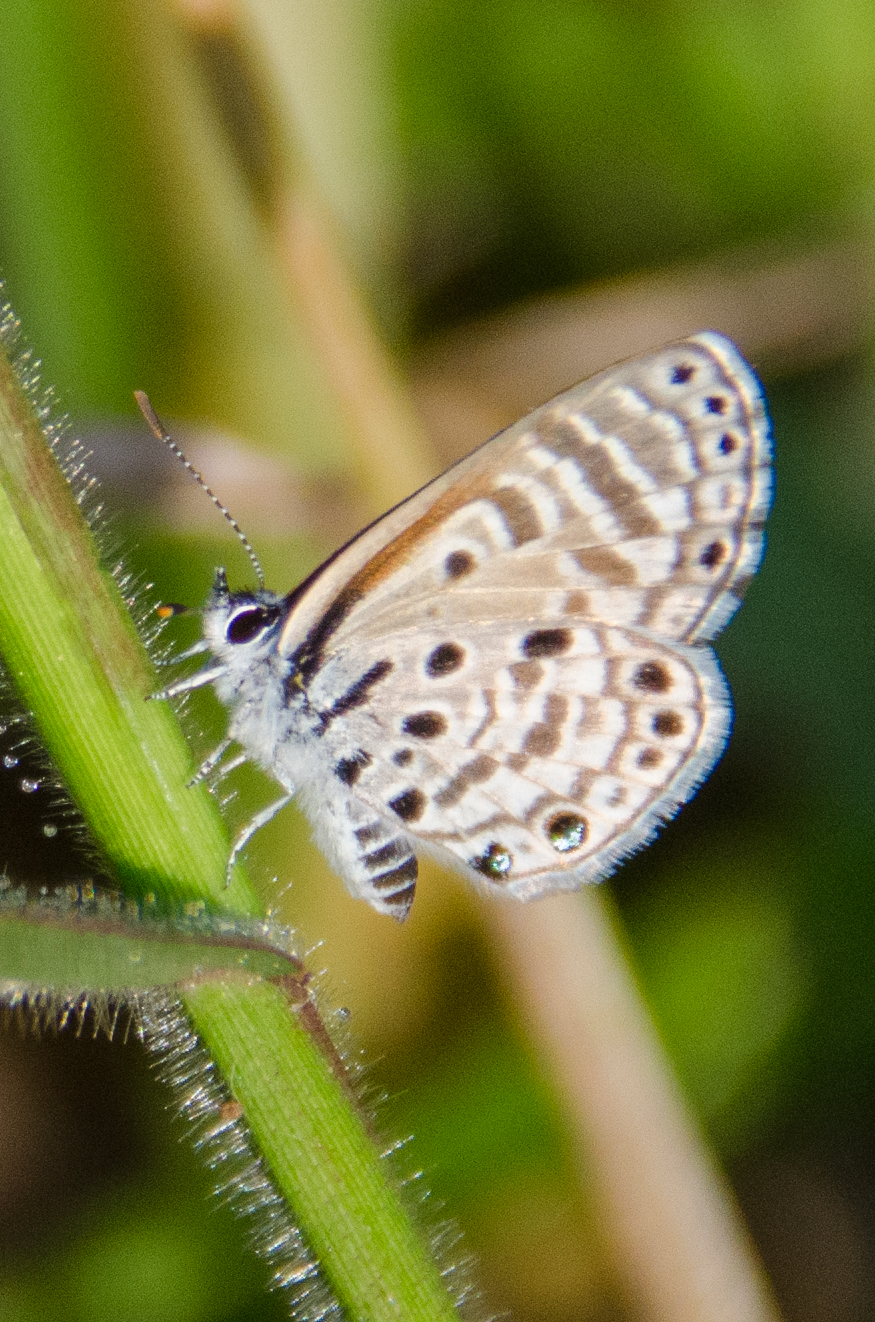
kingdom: Animalia
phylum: Arthropoda
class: Insecta
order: Lepidoptera
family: Lycaenidae
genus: Azanus
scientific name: Azanus jesous
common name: African babul blue
